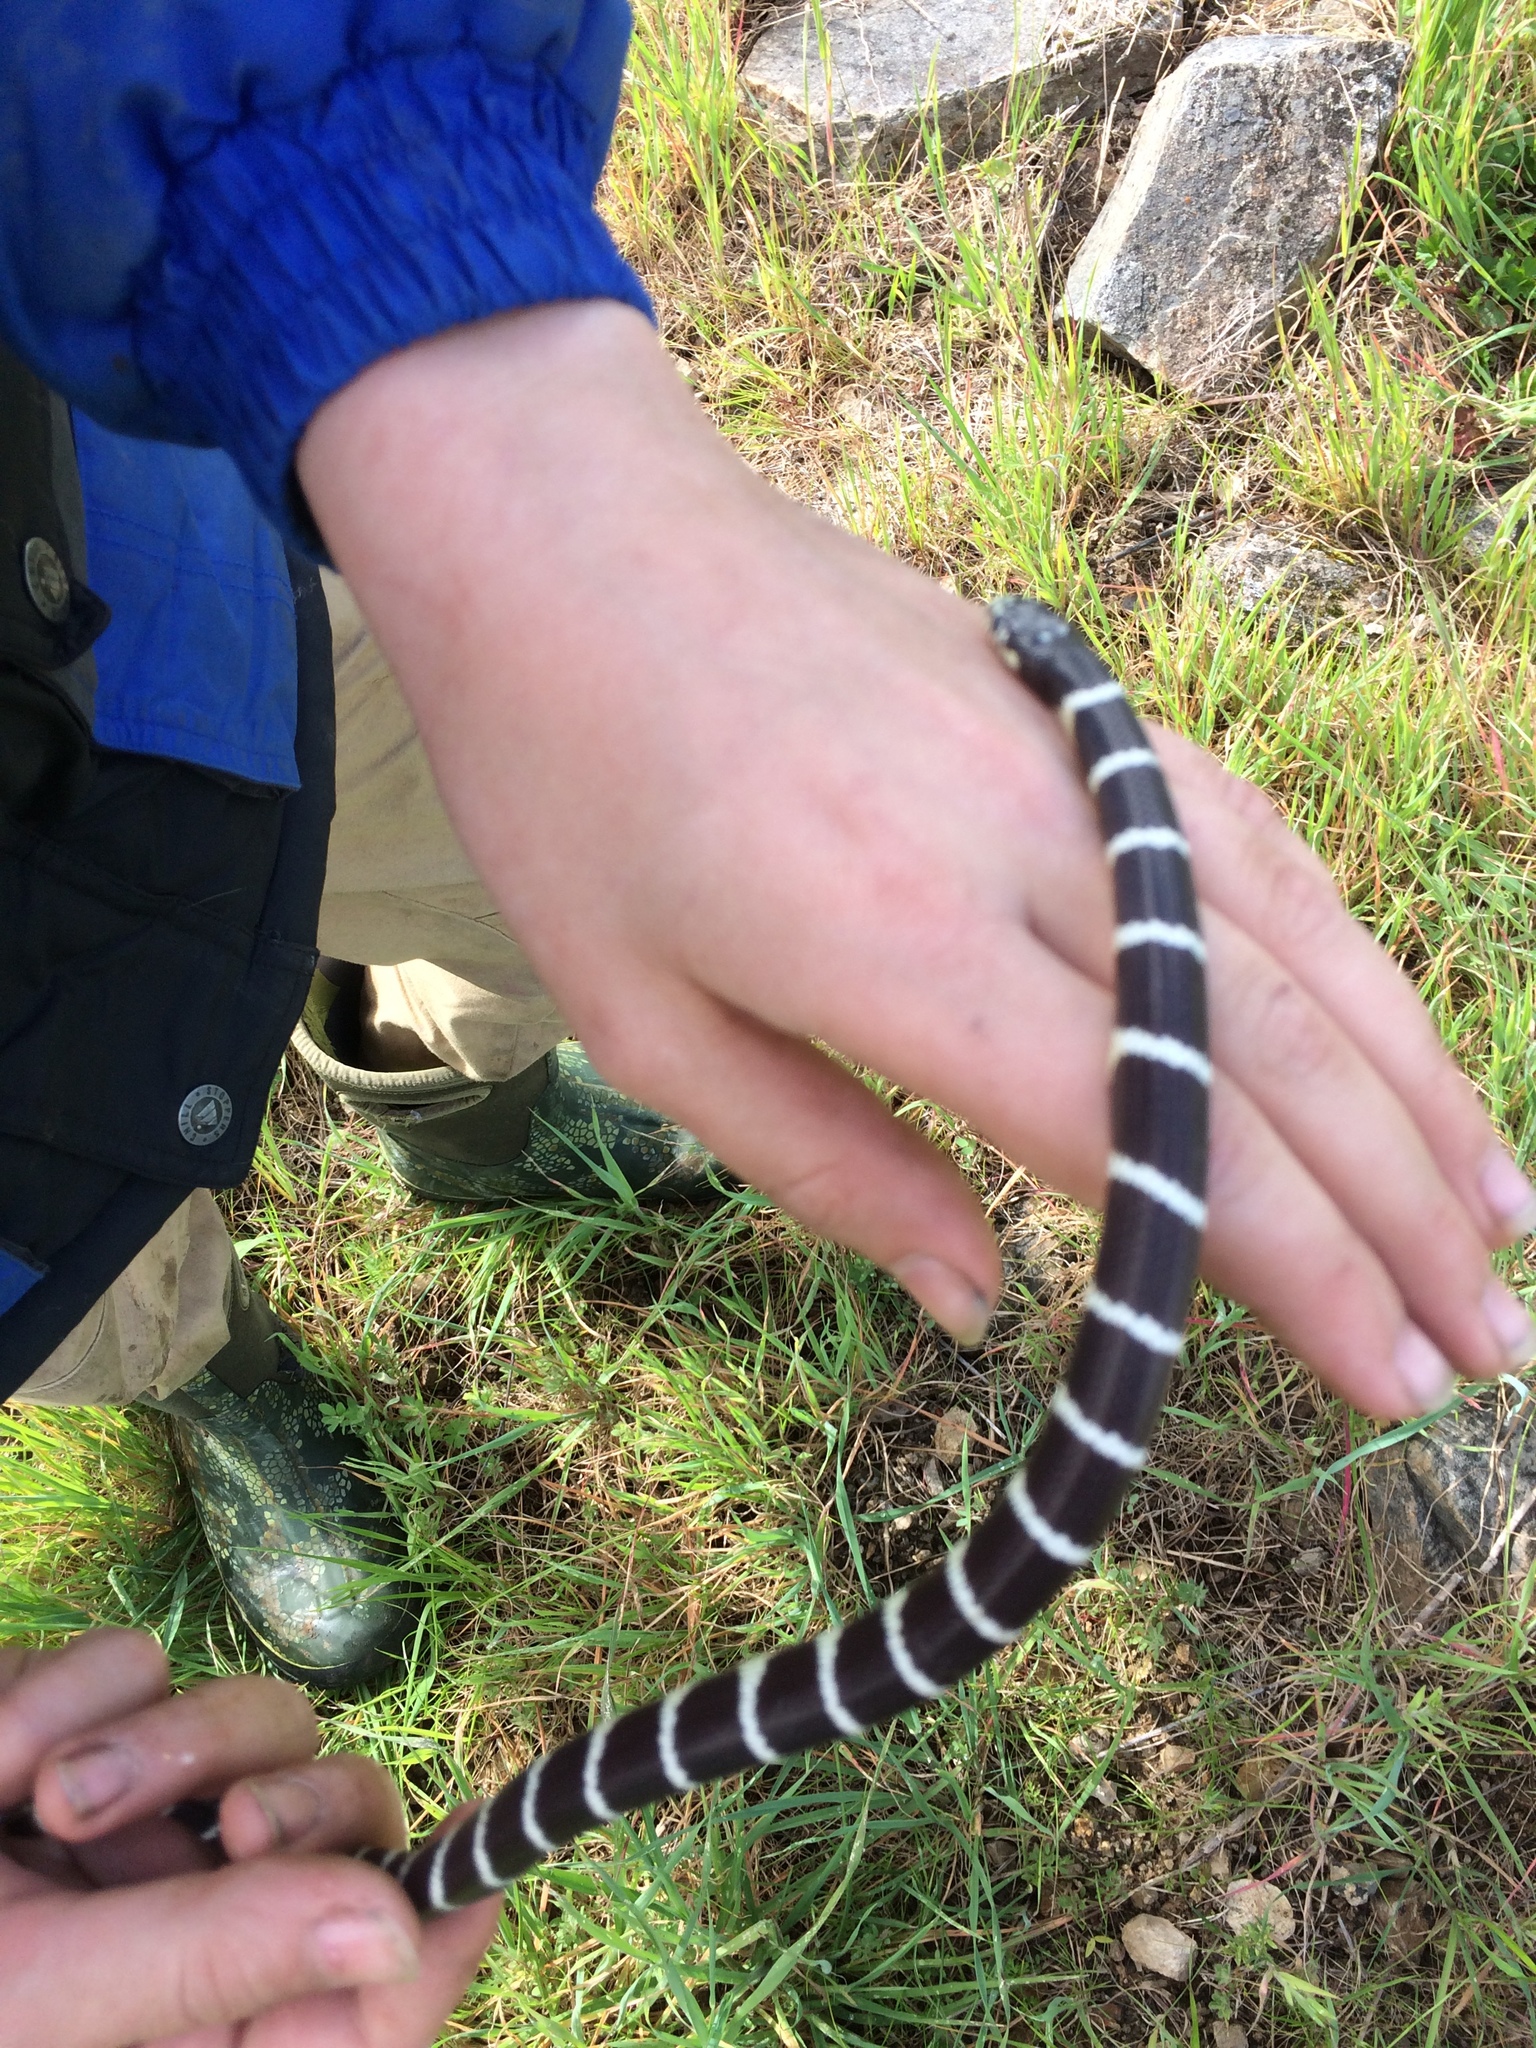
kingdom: Animalia
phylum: Chordata
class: Squamata
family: Colubridae
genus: Lampropeltis
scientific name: Lampropeltis californiae
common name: California kingsnake
